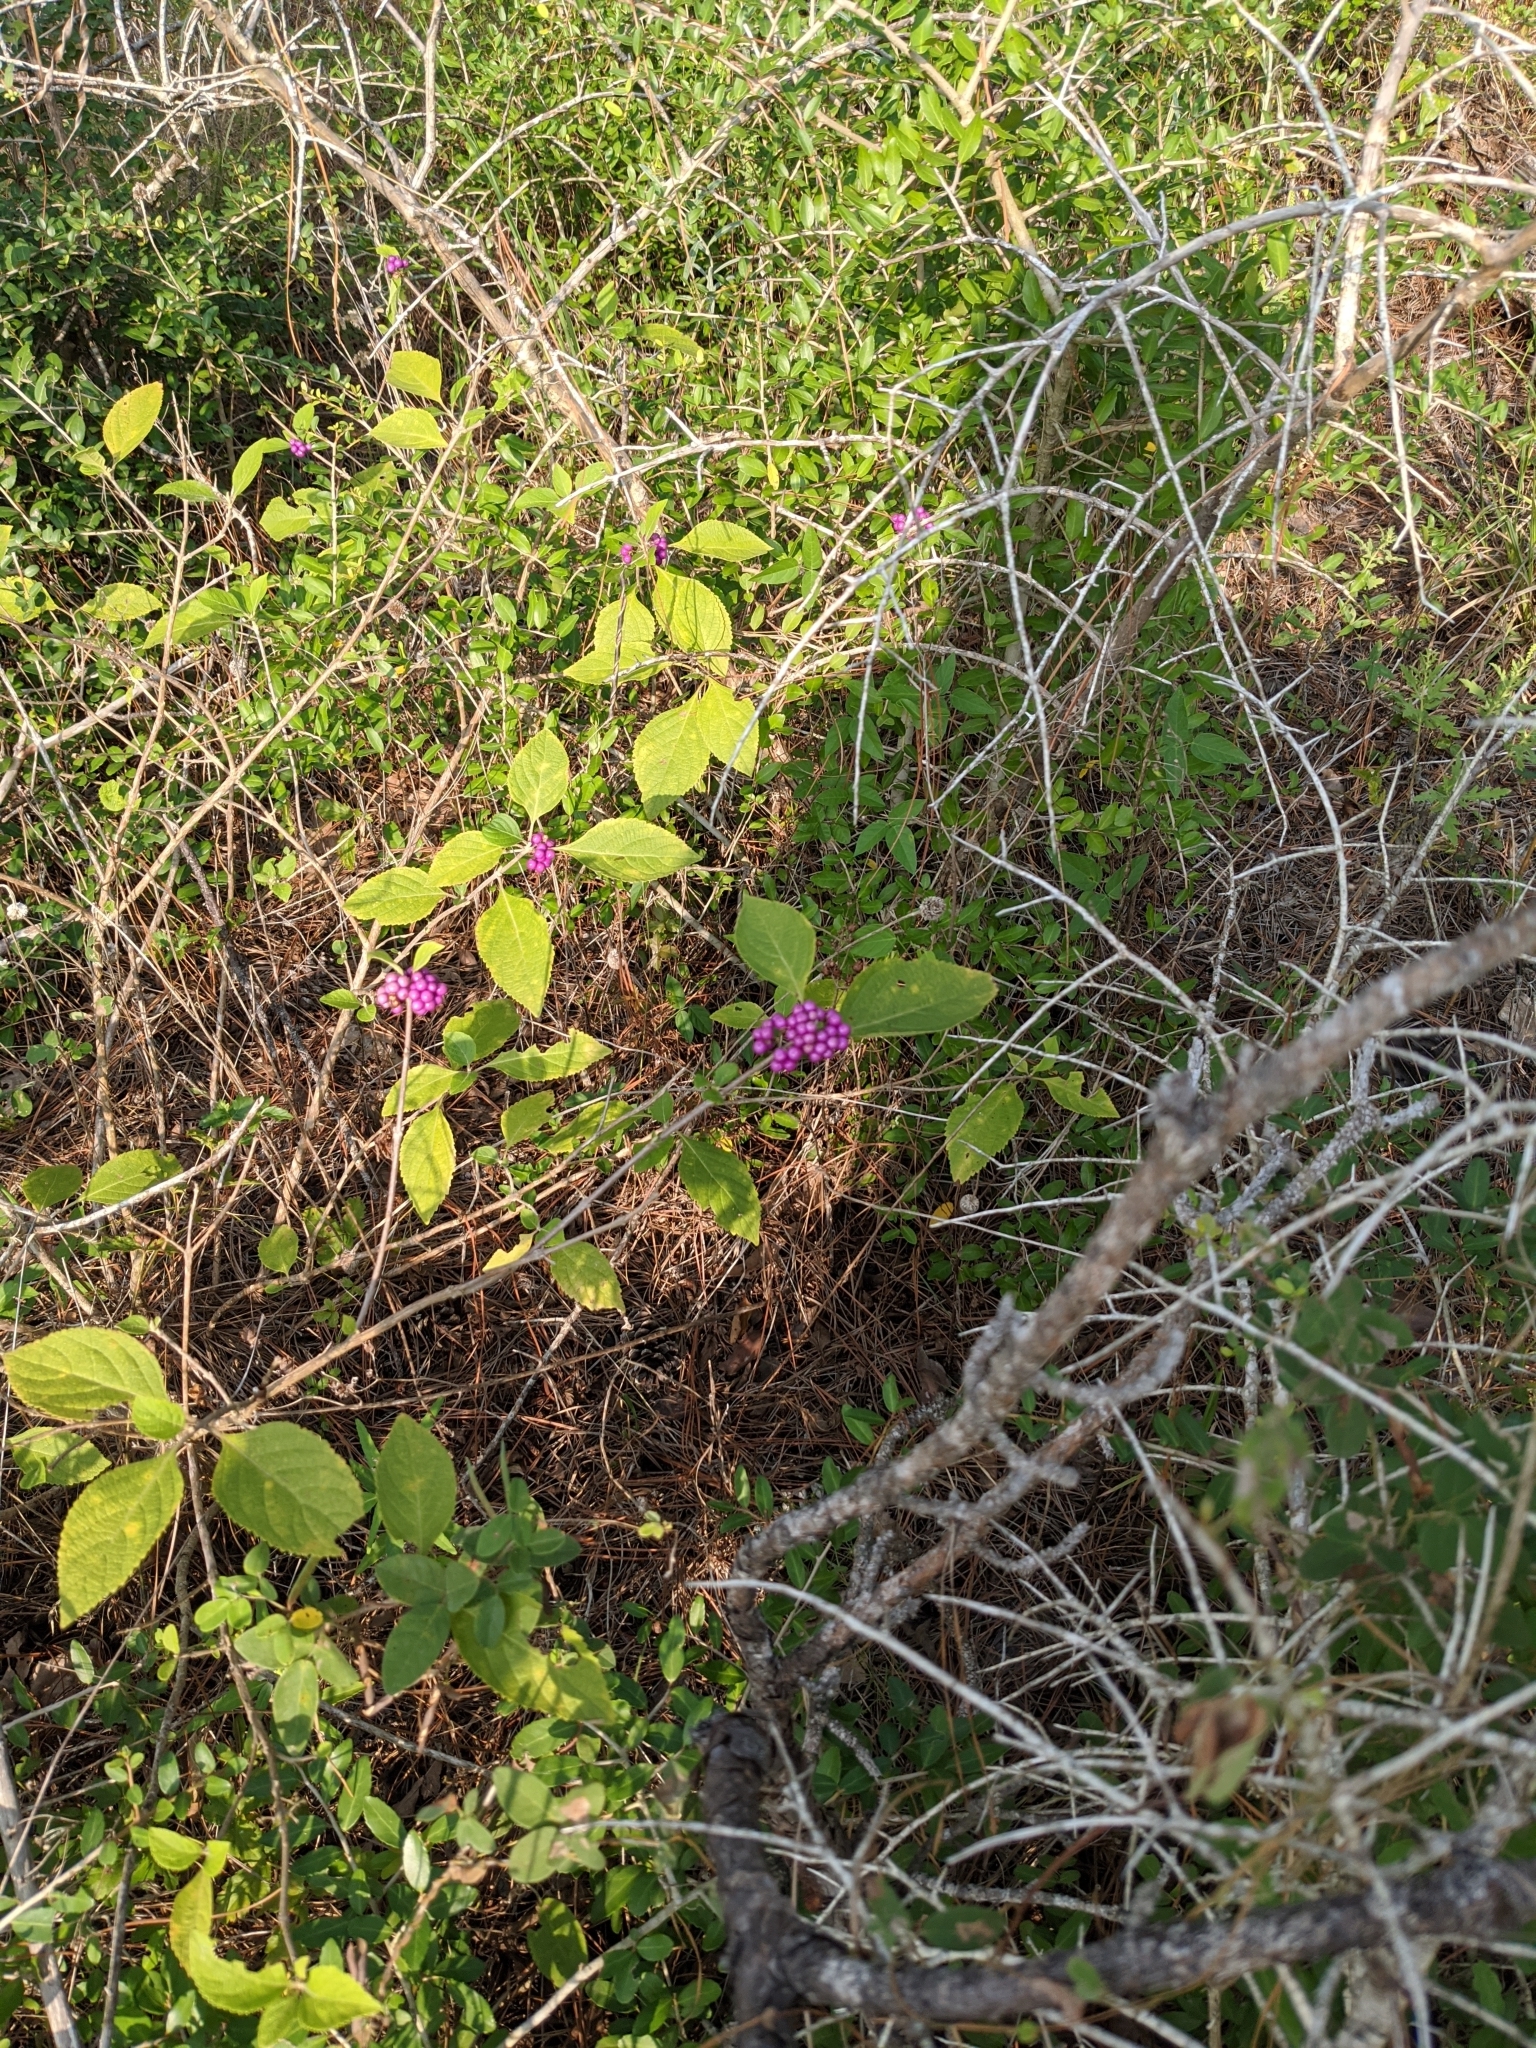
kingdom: Plantae
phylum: Tracheophyta
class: Magnoliopsida
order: Lamiales
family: Lamiaceae
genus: Callicarpa
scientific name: Callicarpa americana
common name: American beautyberry
